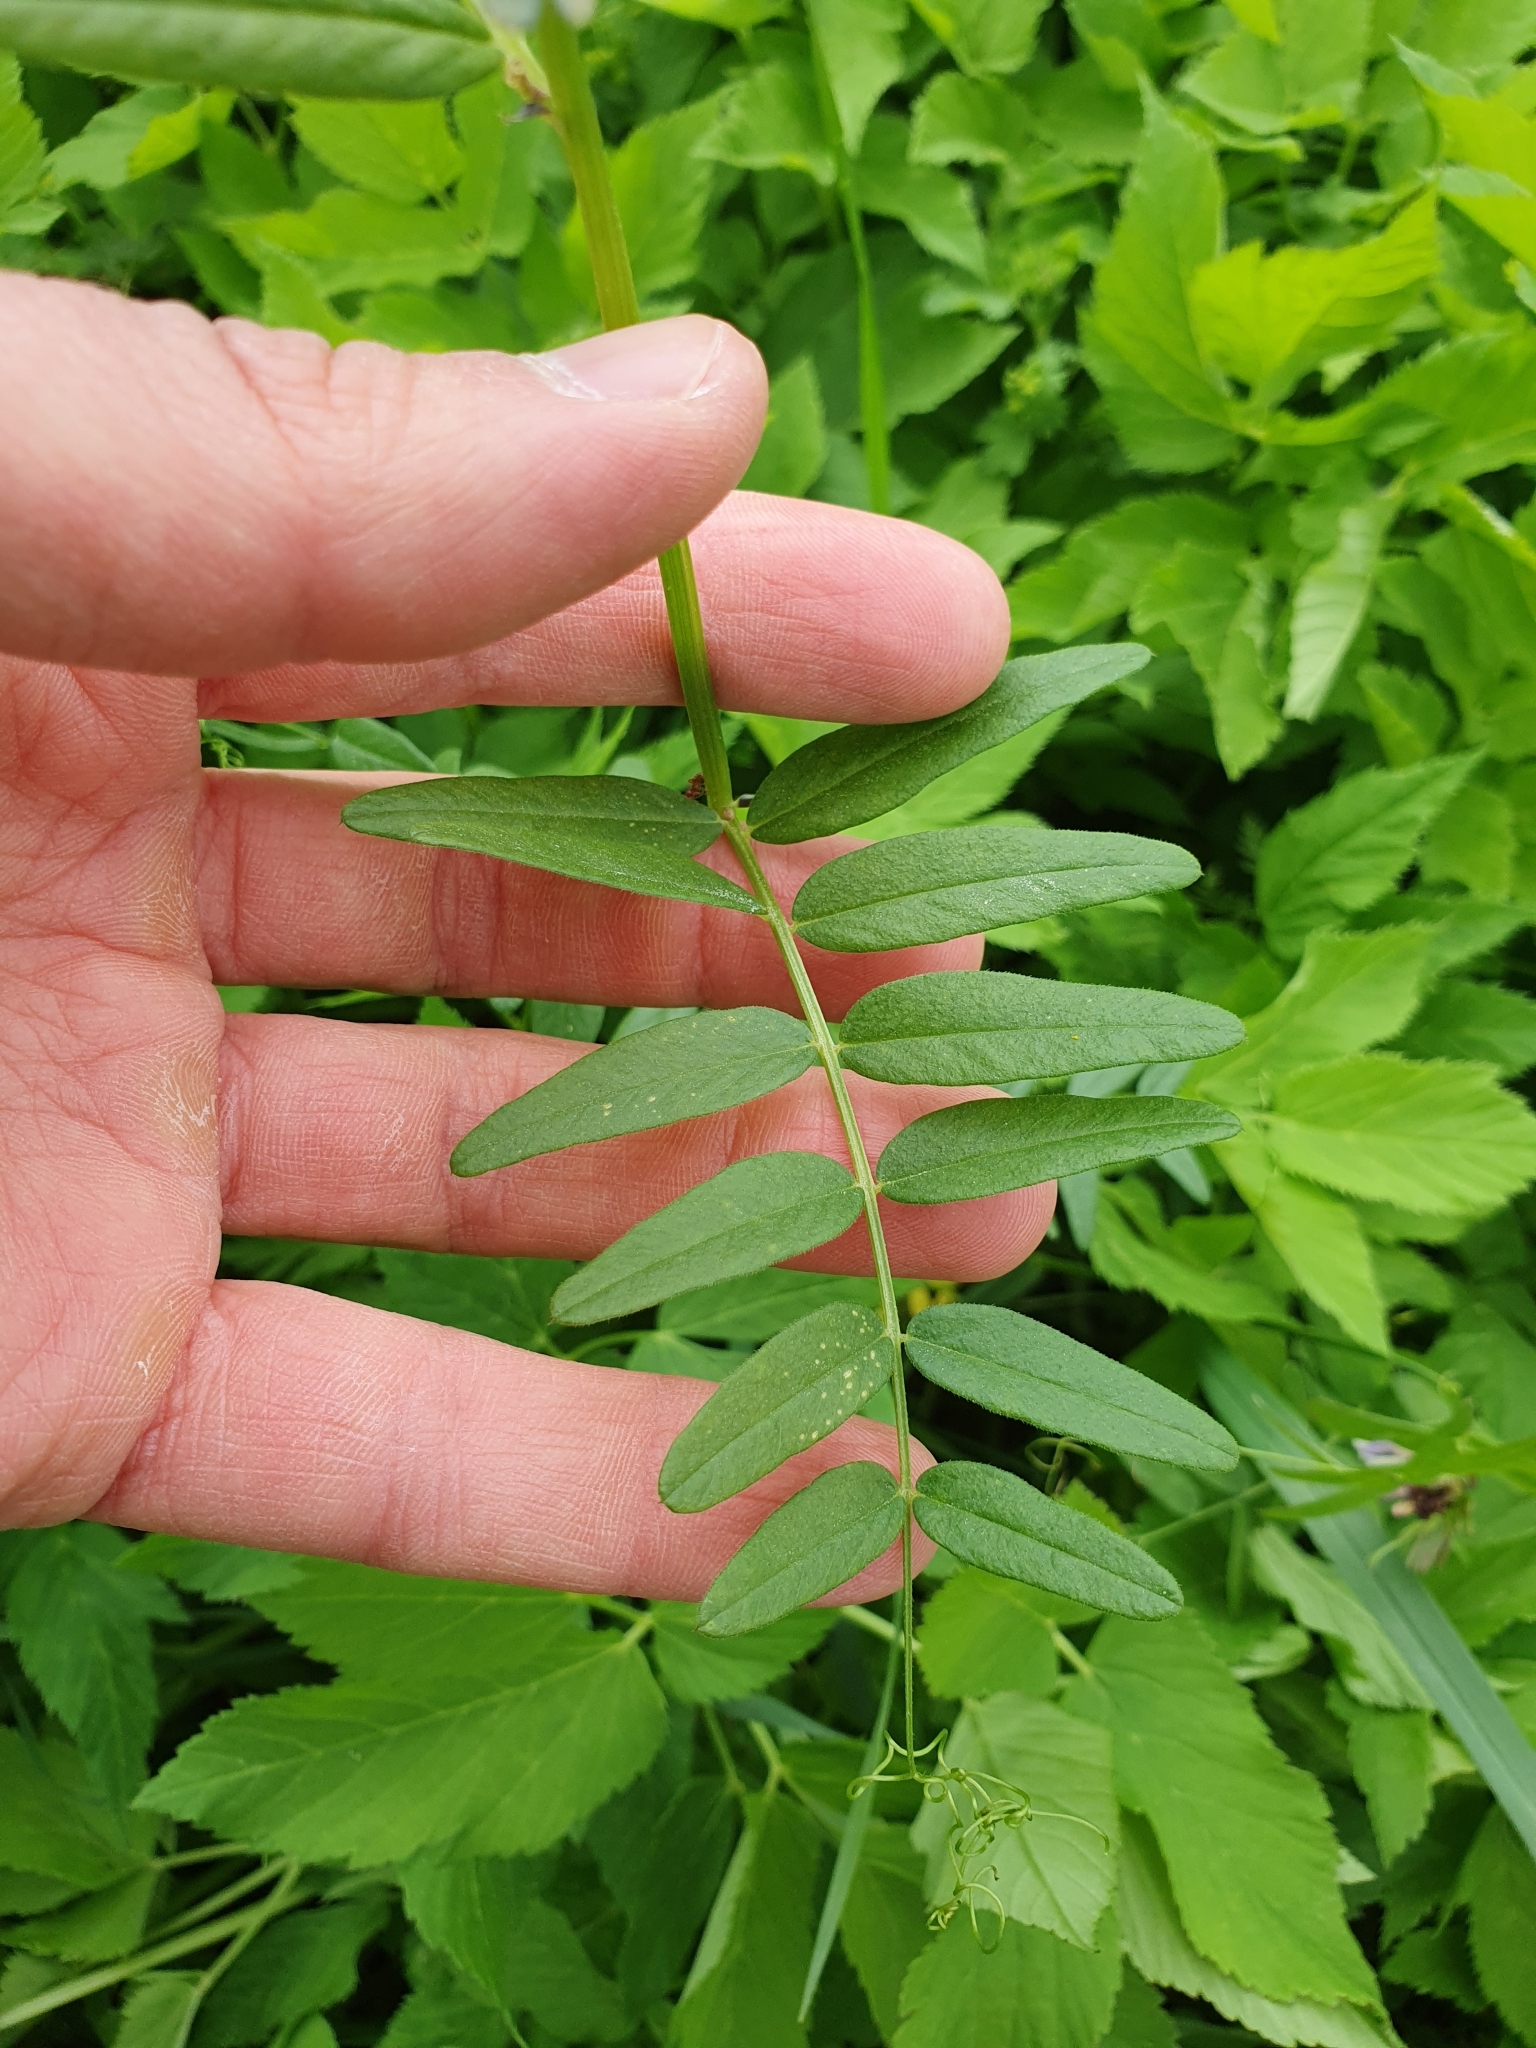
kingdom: Plantae
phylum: Tracheophyta
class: Magnoliopsida
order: Fabales
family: Fabaceae
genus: Vicia
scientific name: Vicia sepium
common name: Bush vetch
